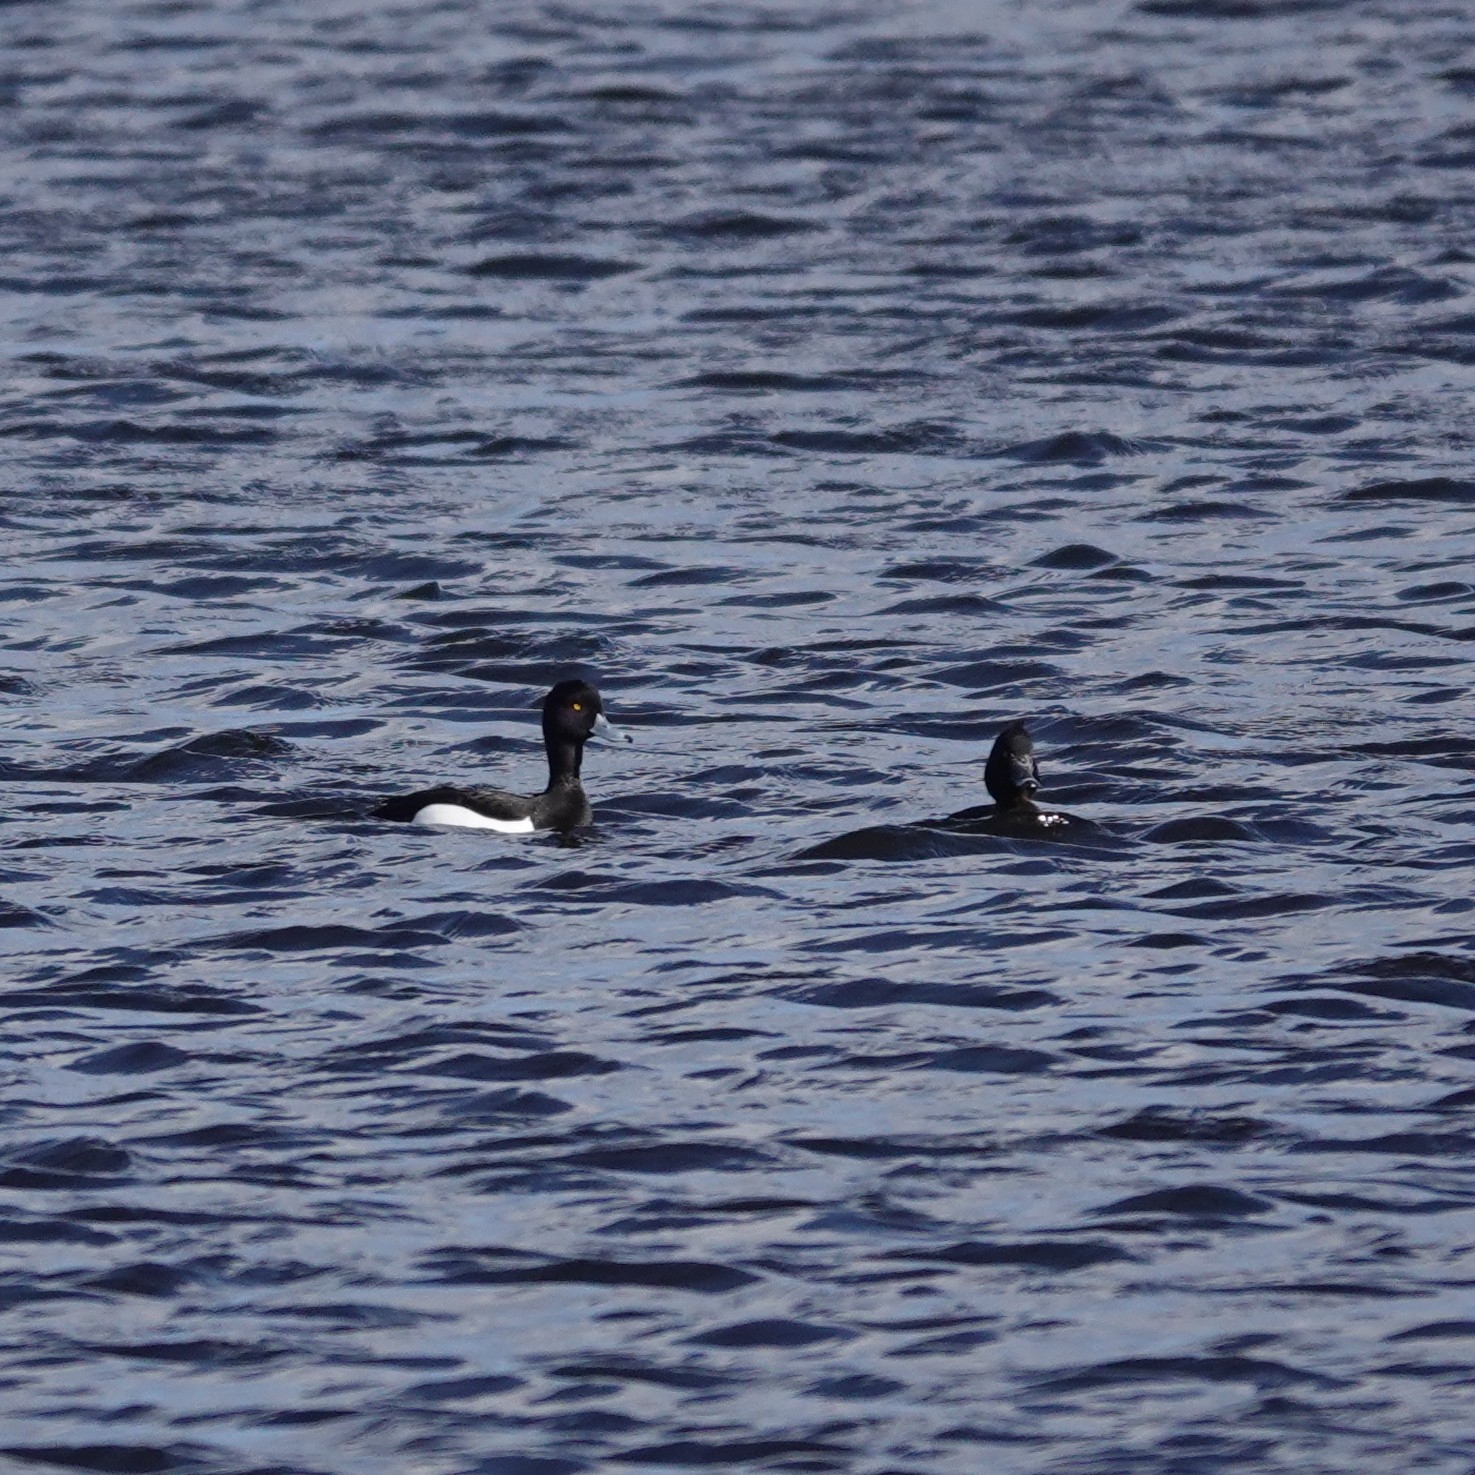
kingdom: Animalia
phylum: Chordata
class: Aves
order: Anseriformes
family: Anatidae
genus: Aythya
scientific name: Aythya fuligula
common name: Tufted duck
